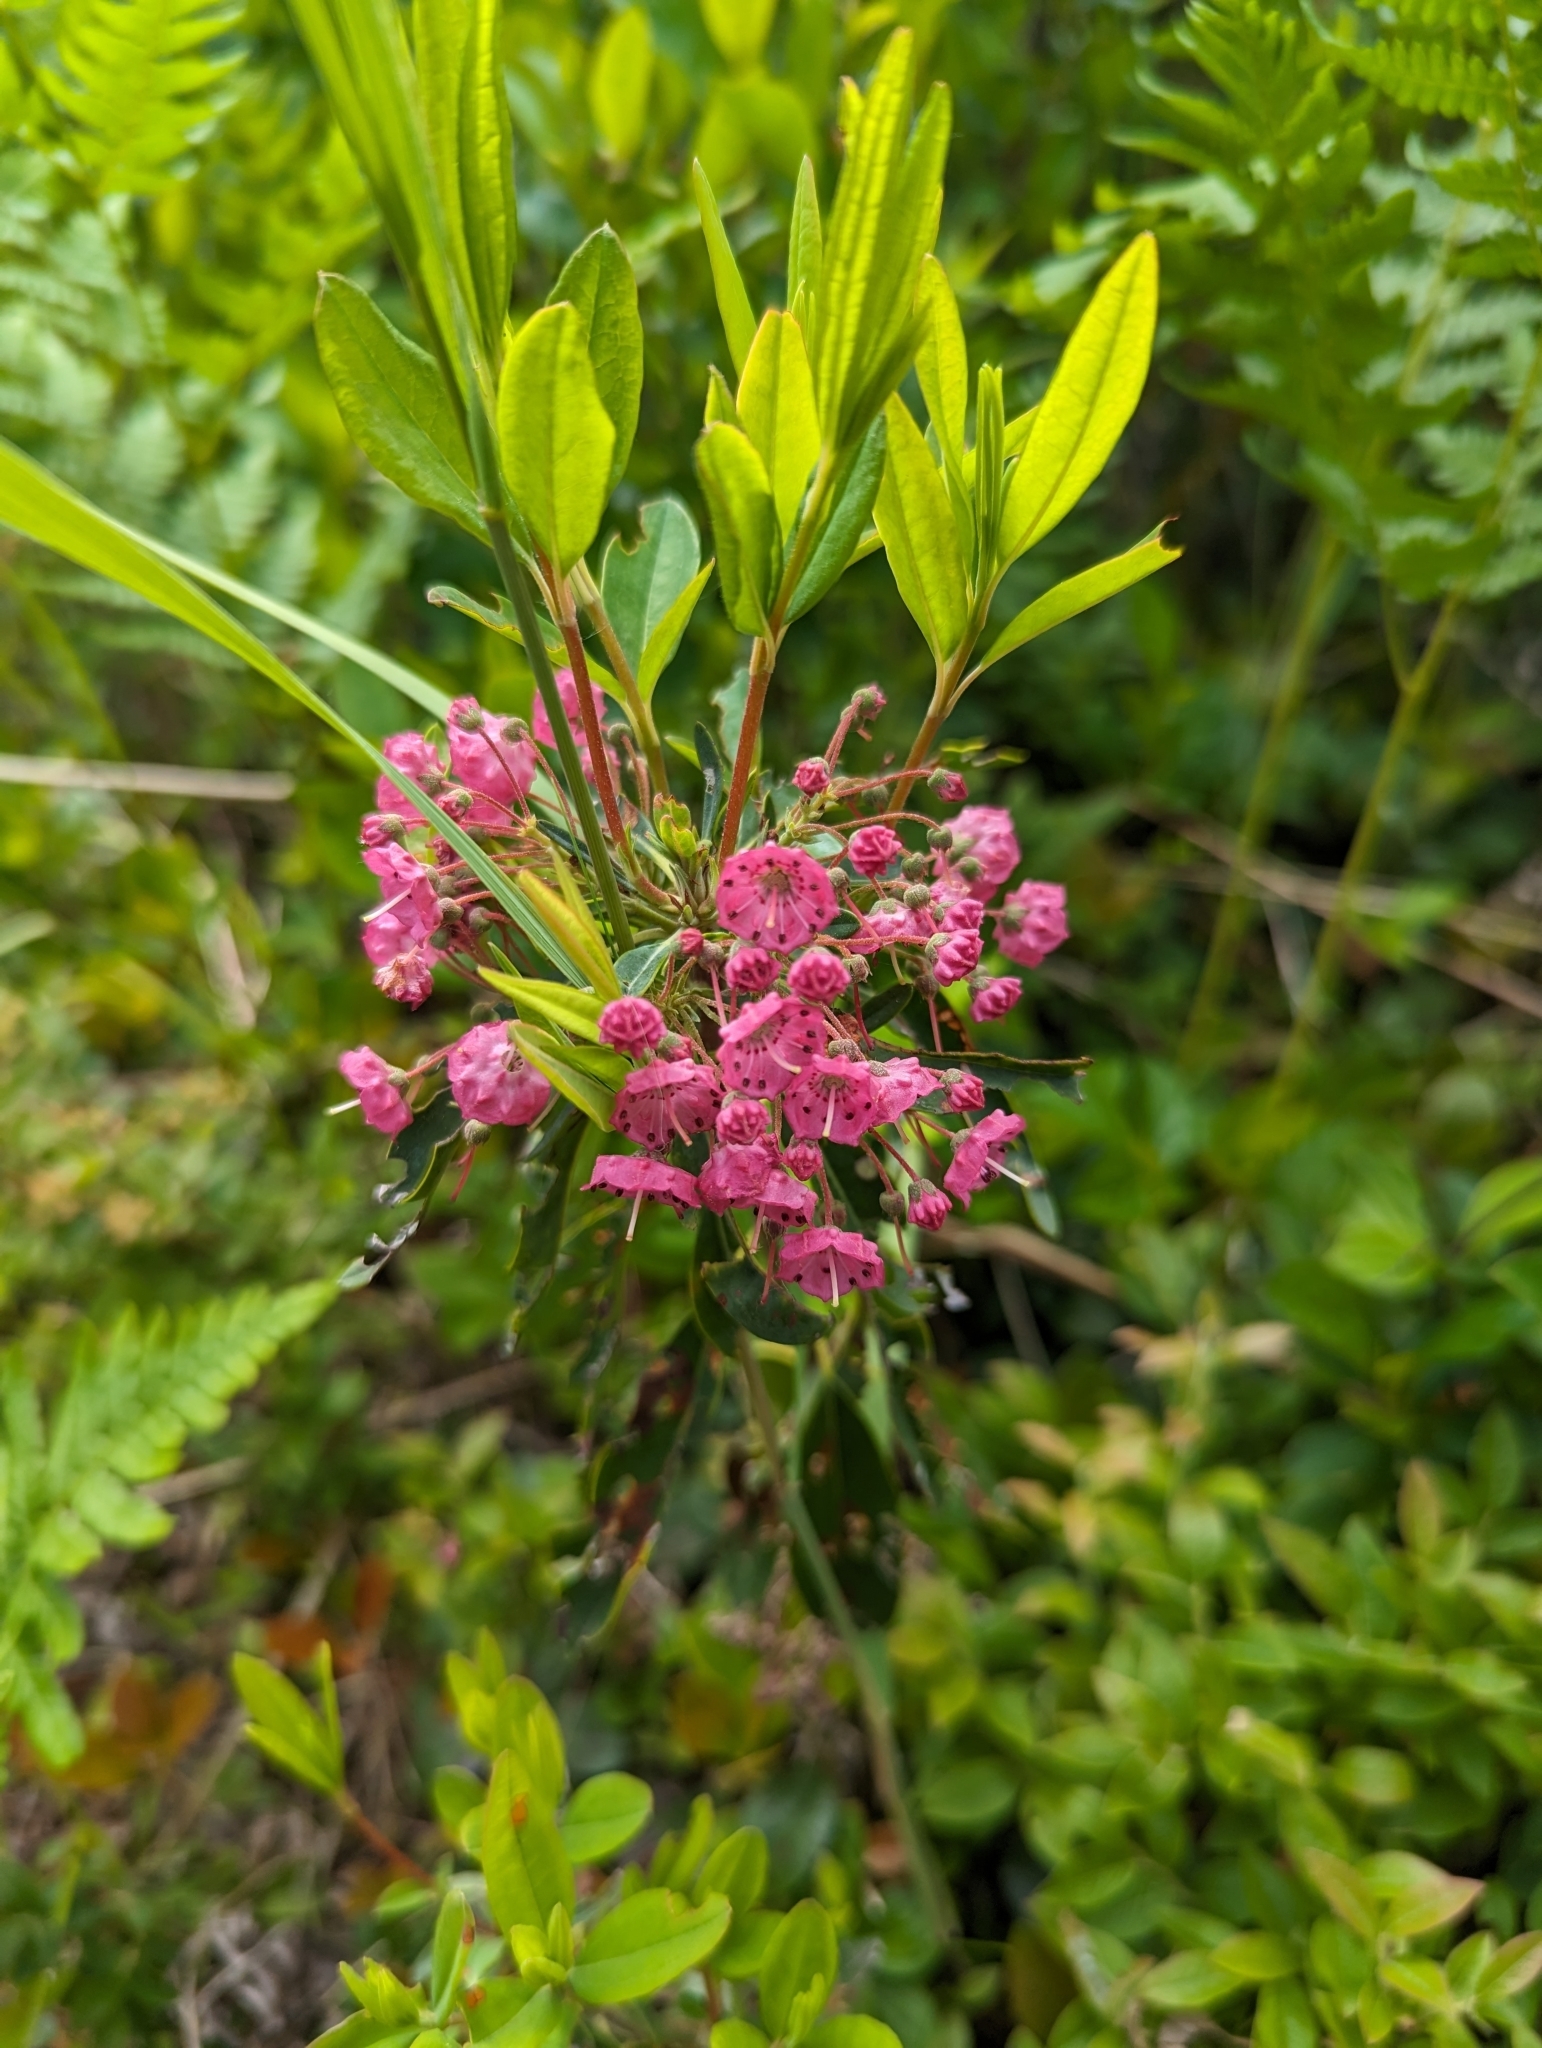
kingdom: Plantae
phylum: Tracheophyta
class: Magnoliopsida
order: Ericales
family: Ericaceae
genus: Kalmia
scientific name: Kalmia angustifolia
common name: Sheep-laurel
